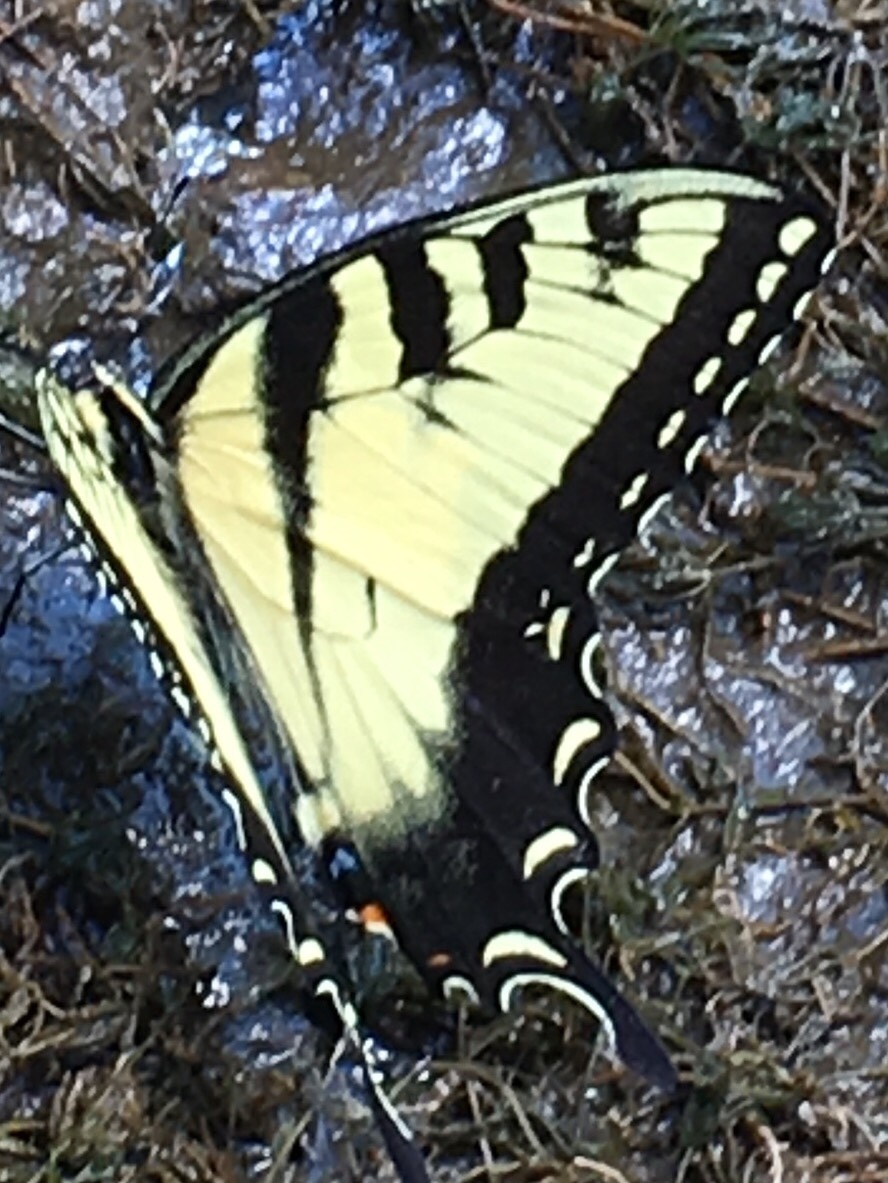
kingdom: Animalia
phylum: Arthropoda
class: Insecta
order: Lepidoptera
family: Papilionidae
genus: Papilio
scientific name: Papilio glaucus
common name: Tiger swallowtail
